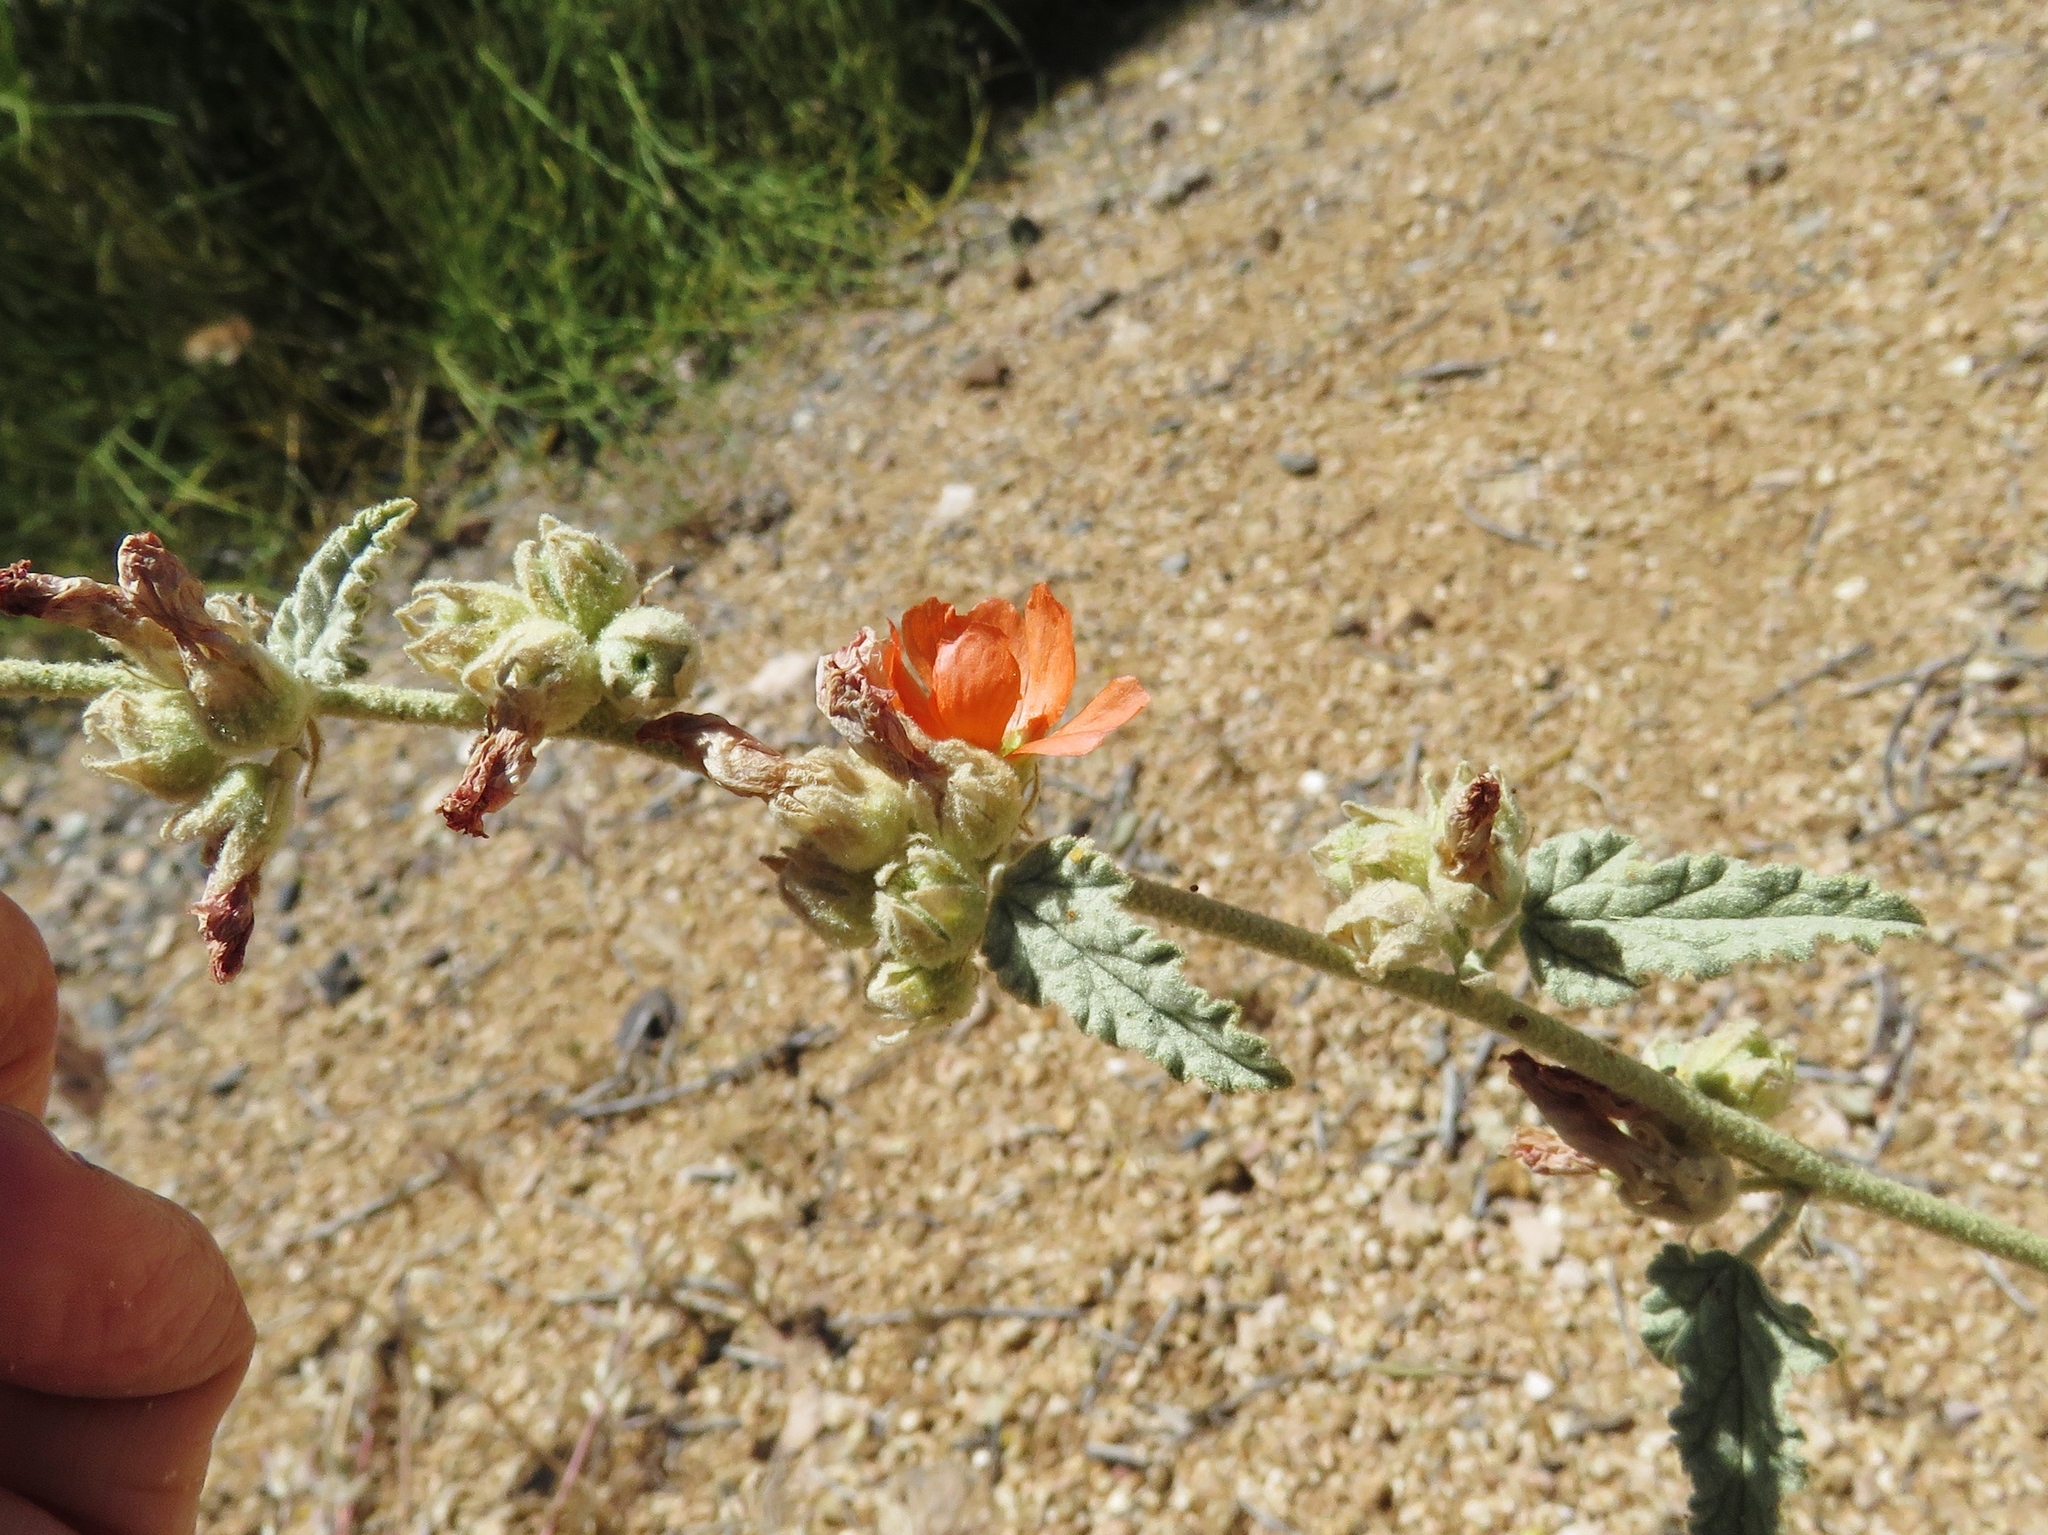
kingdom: Plantae
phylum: Tracheophyta
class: Magnoliopsida
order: Malvales
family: Malvaceae
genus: Sphaeralcea
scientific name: Sphaeralcea fendleri
